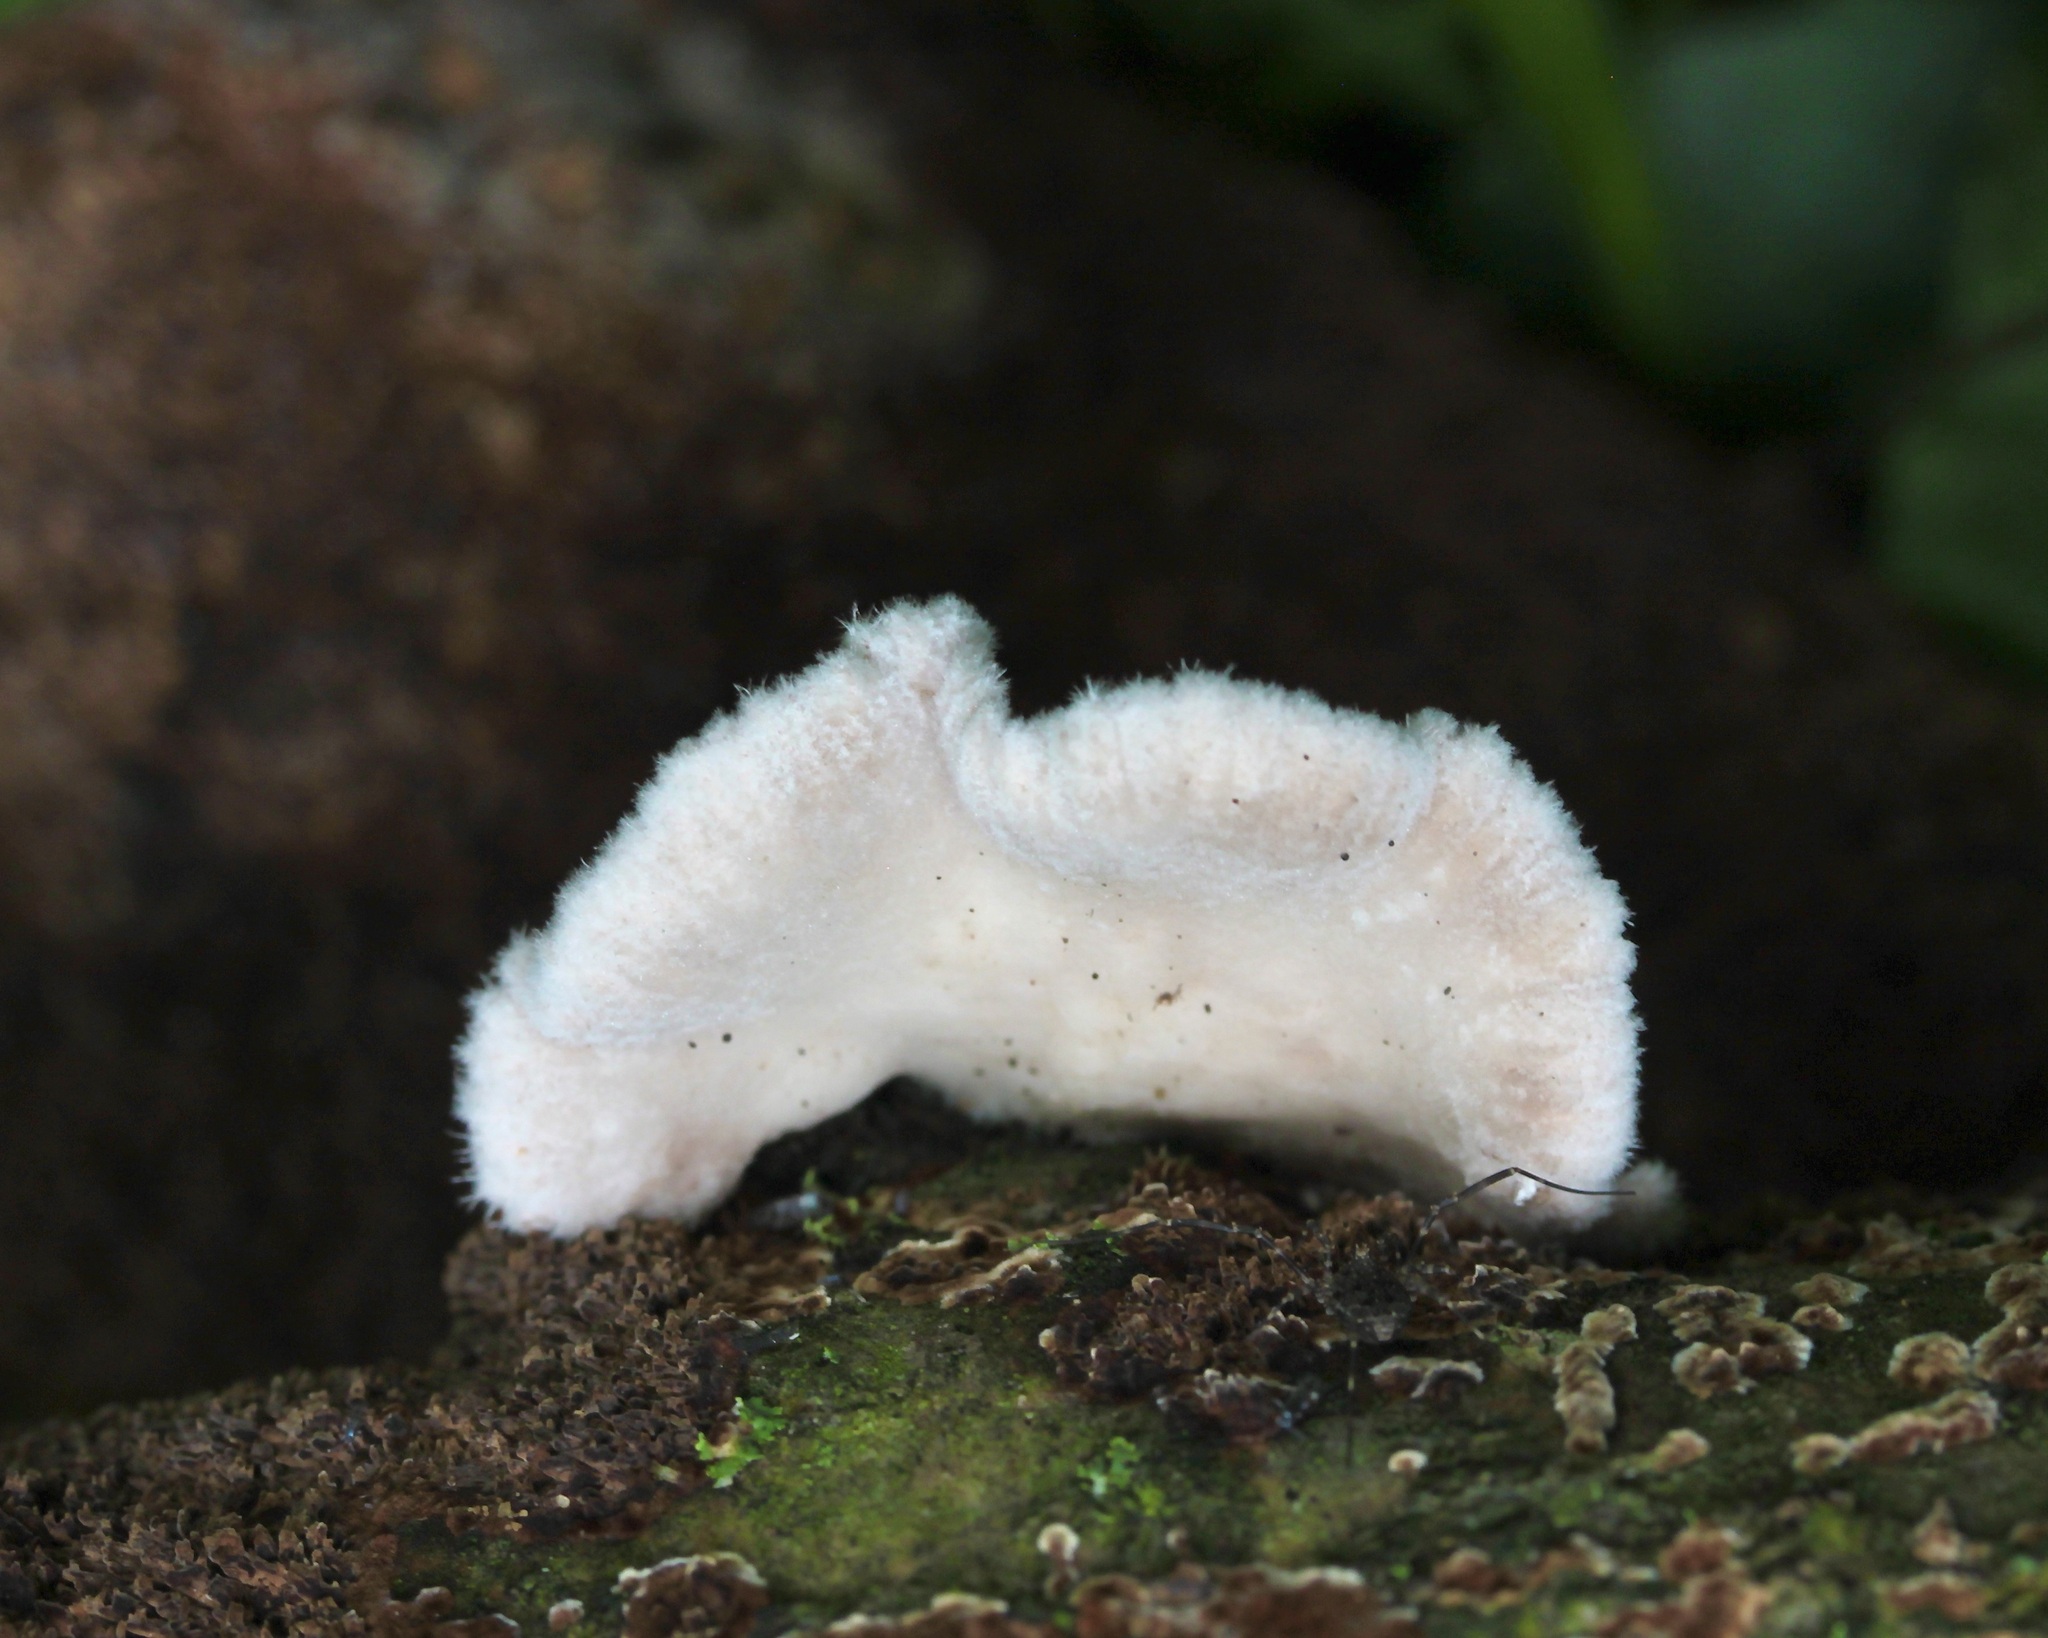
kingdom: Fungi
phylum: Basidiomycota
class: Agaricomycetes
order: Agaricales
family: Schizophyllaceae
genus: Schizophyllum
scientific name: Schizophyllum commune
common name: Common porecrust
